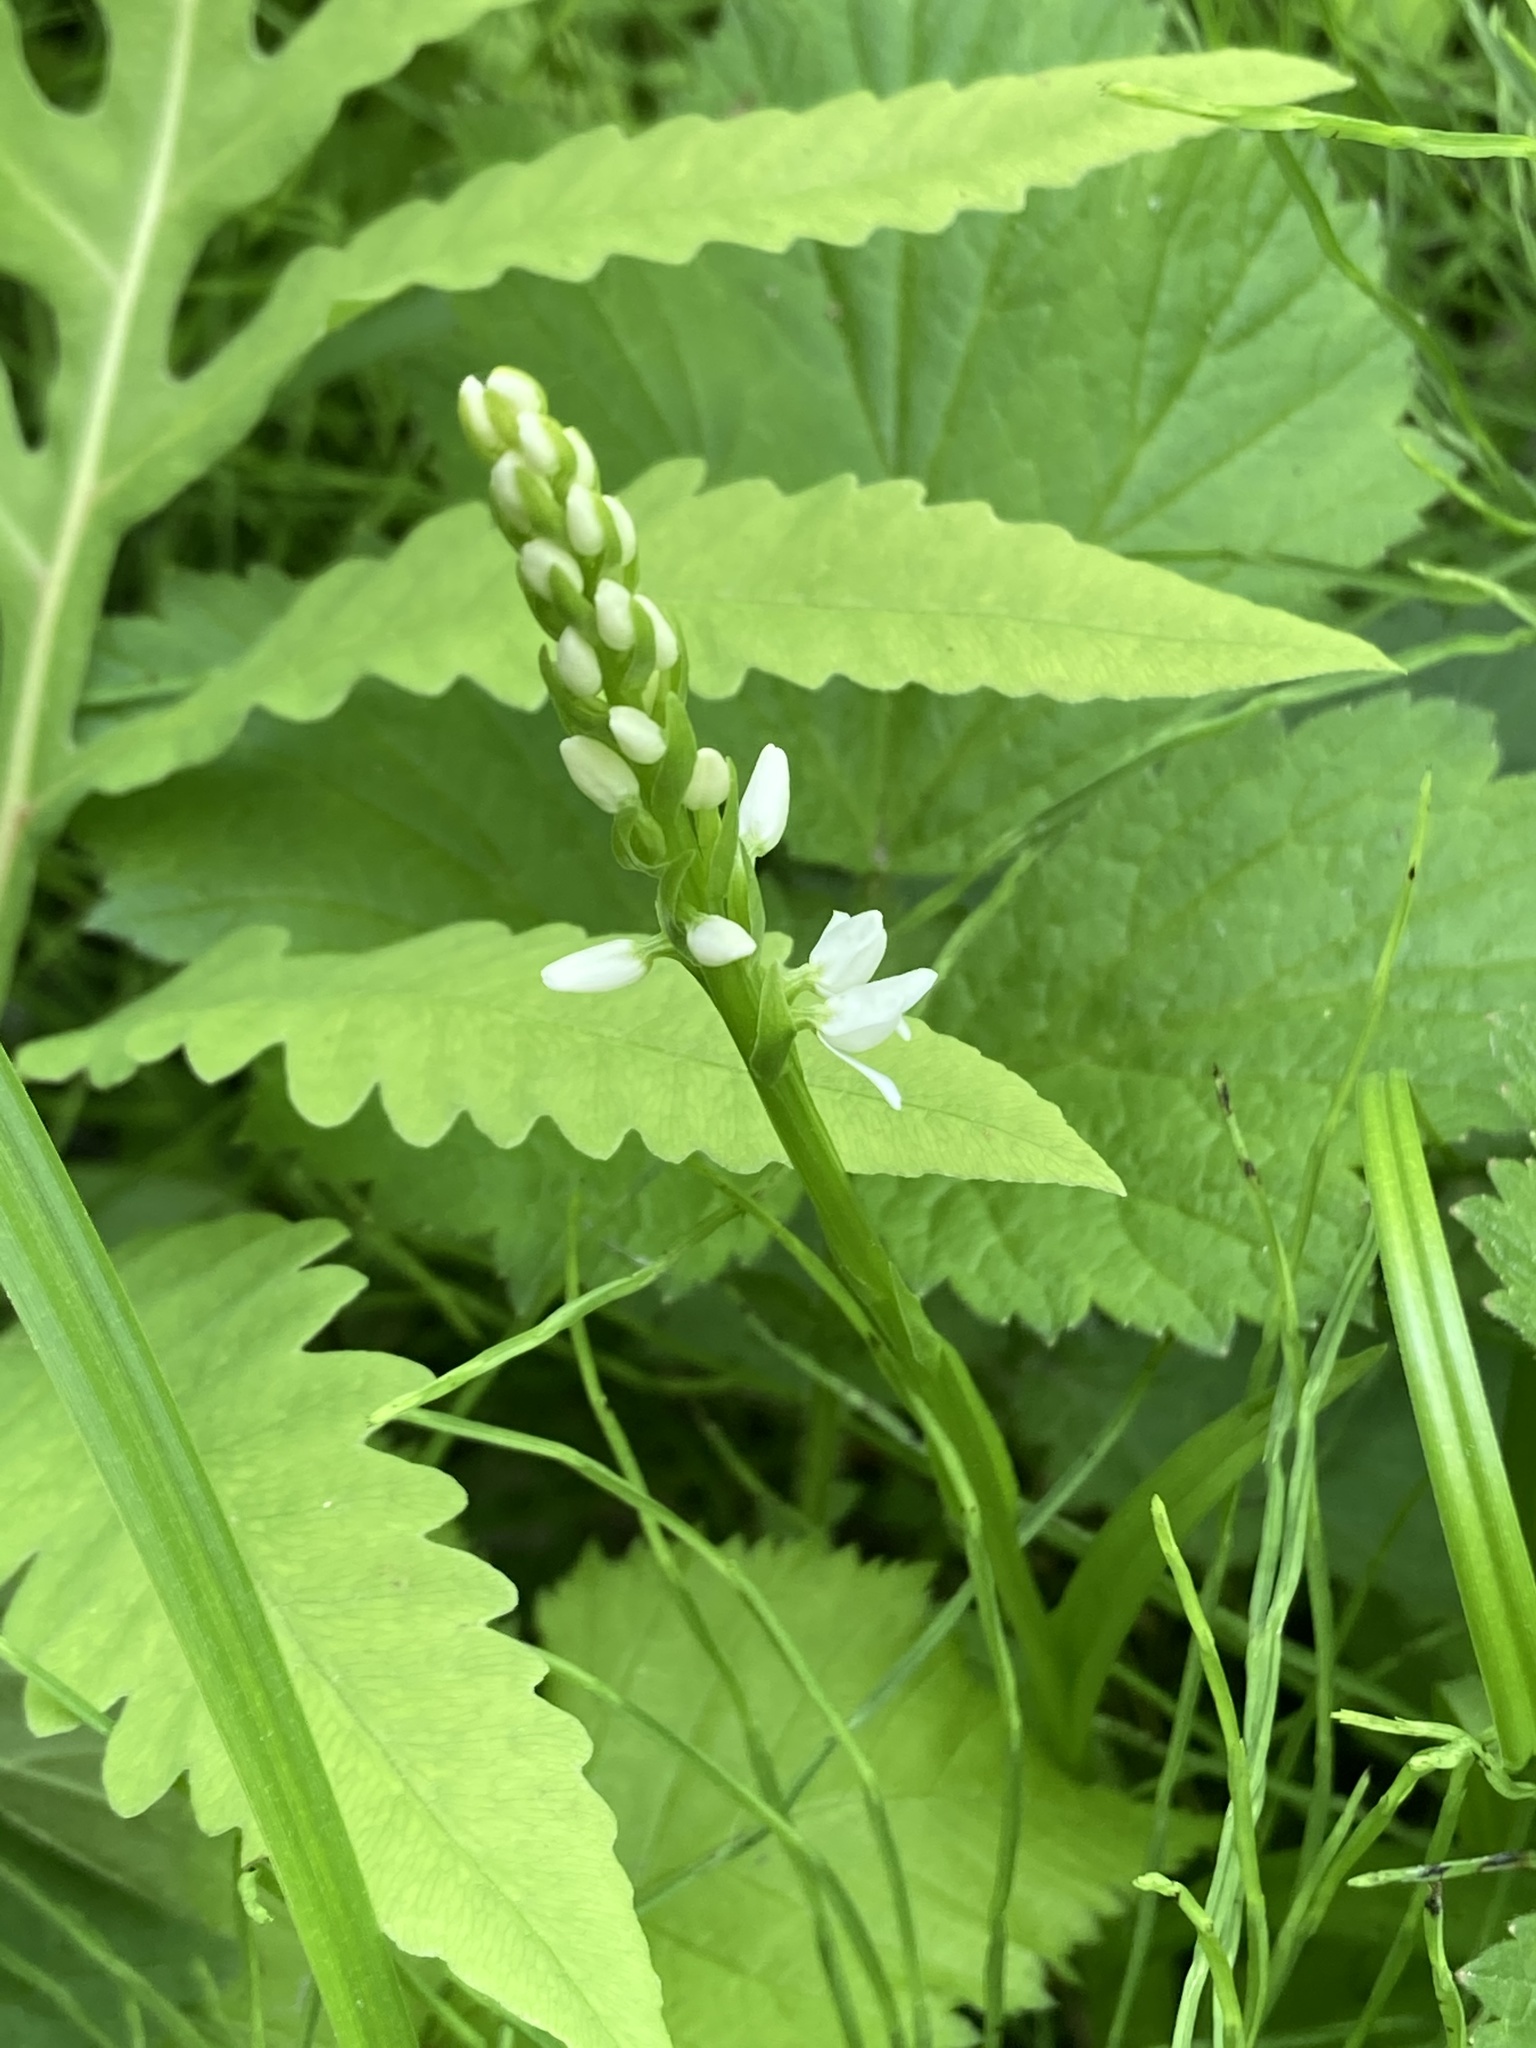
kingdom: Plantae
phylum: Tracheophyta
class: Liliopsida
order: Asparagales
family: Orchidaceae
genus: Platanthera
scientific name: Platanthera dilatata
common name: Bog candles
